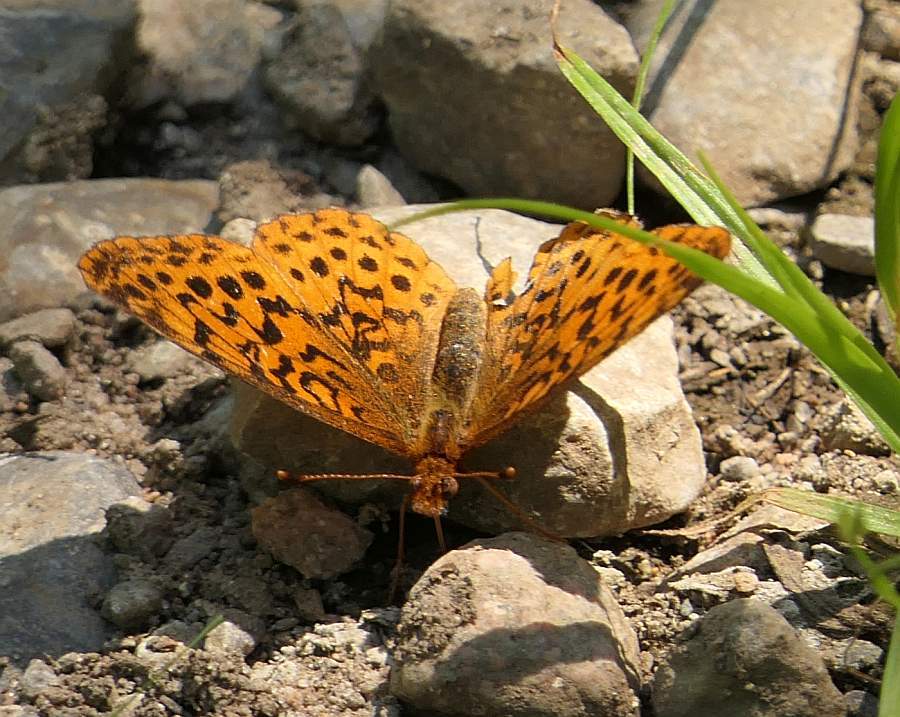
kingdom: Animalia
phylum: Arthropoda
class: Insecta
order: Lepidoptera
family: Nymphalidae
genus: Clossiana
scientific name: Clossiana toddi
